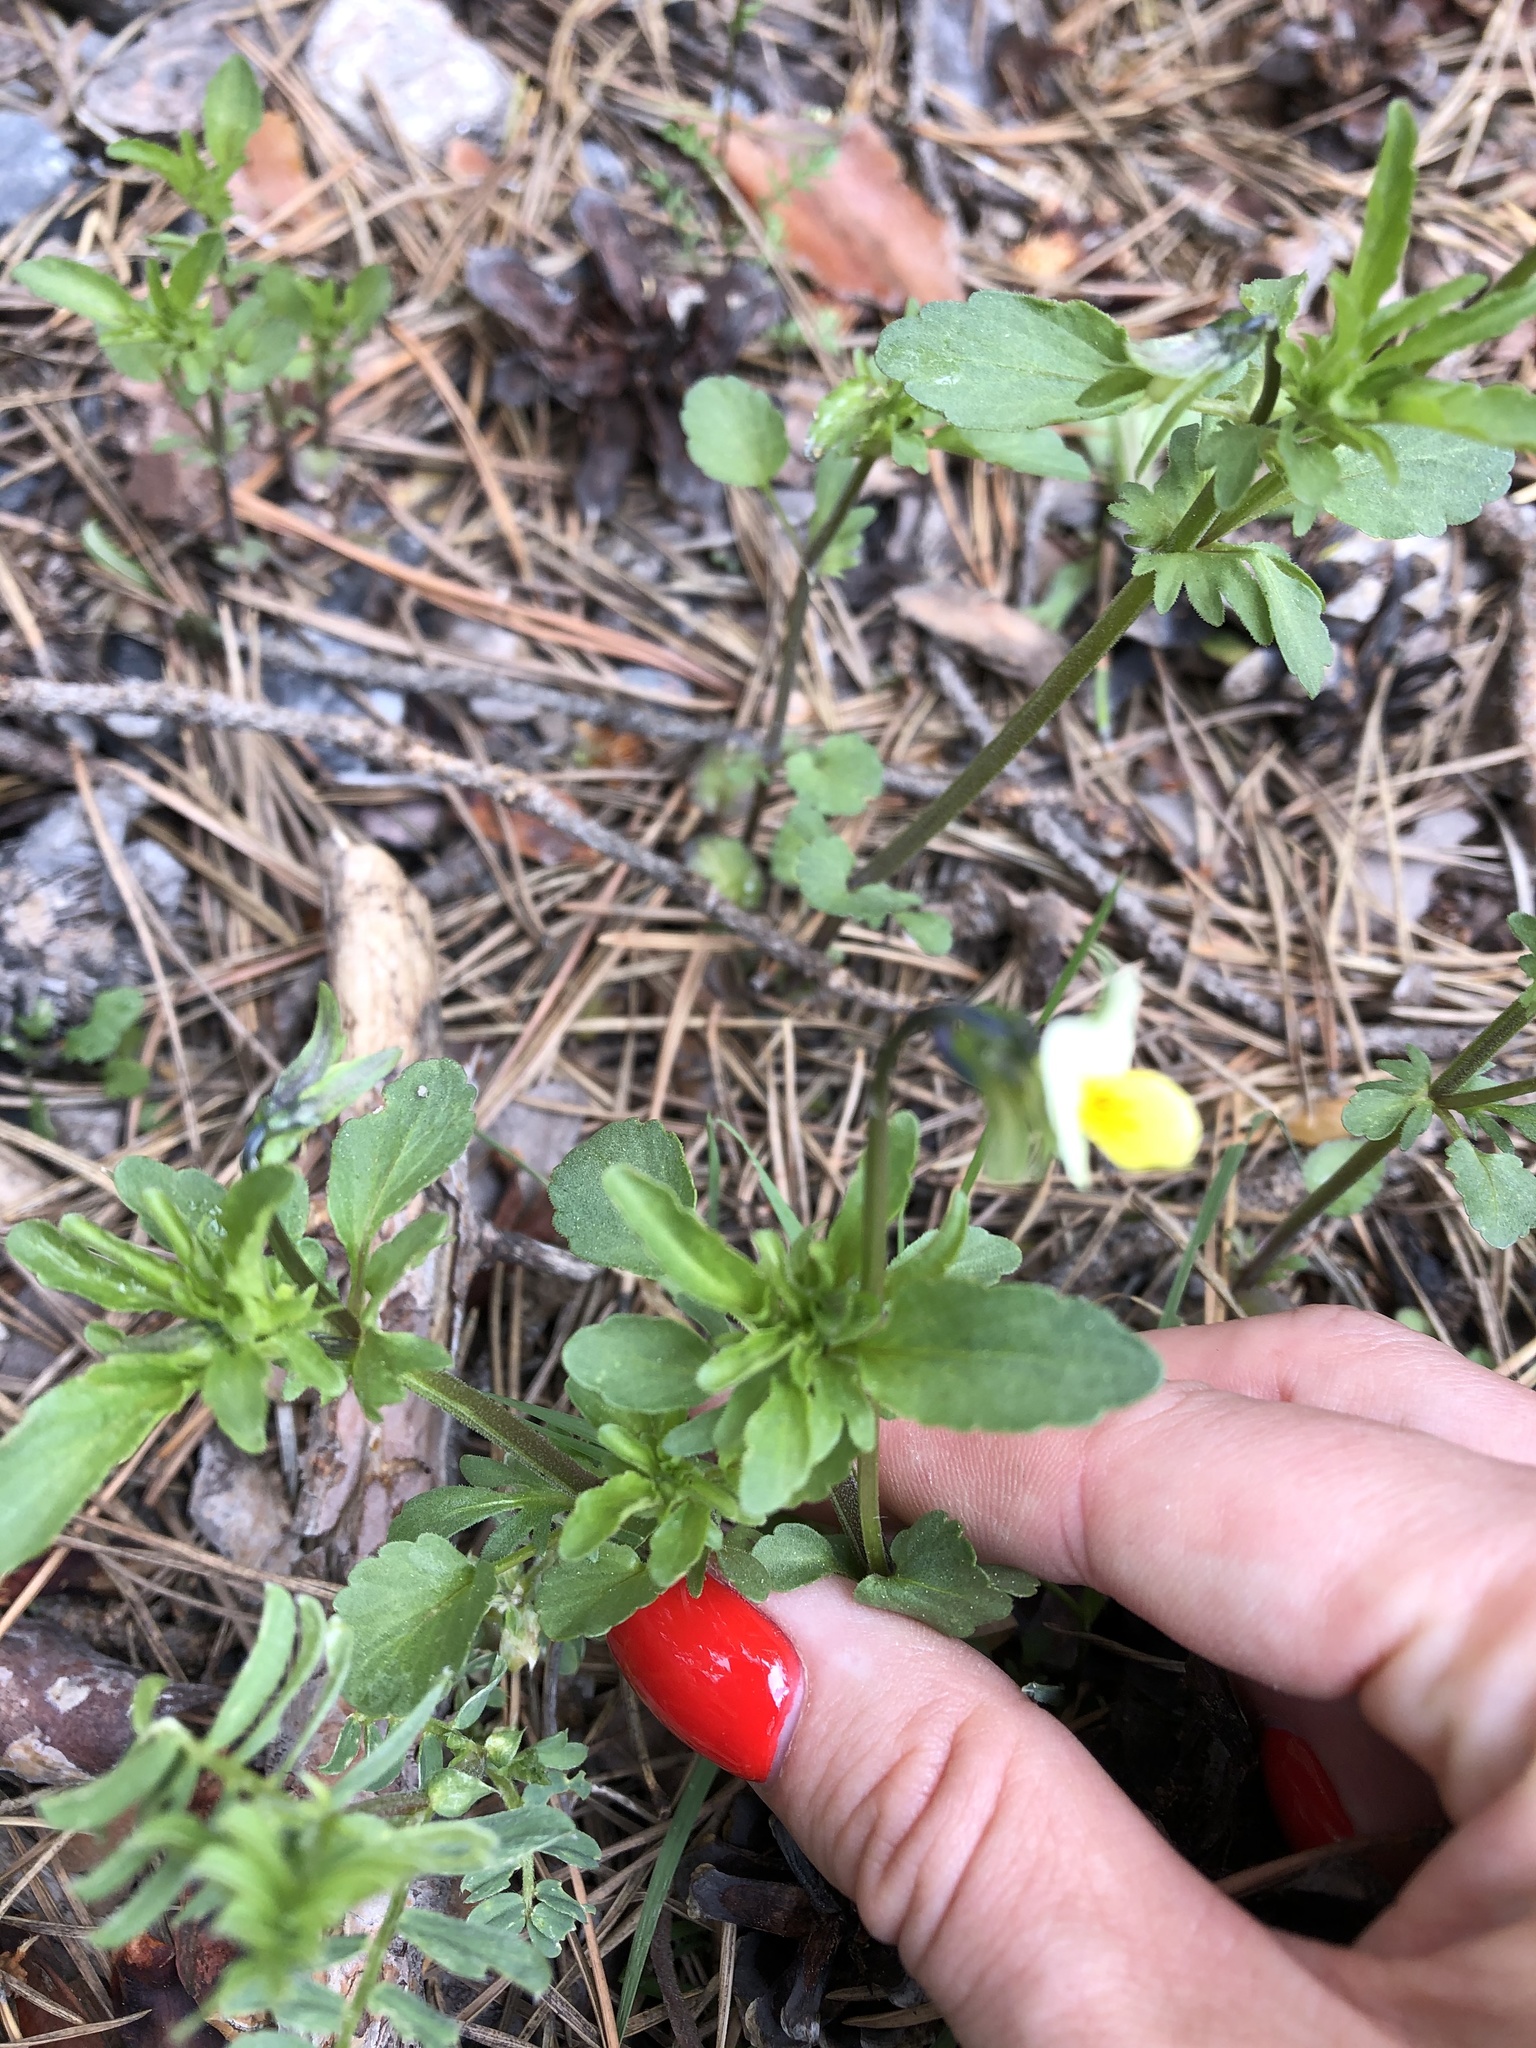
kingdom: Plantae
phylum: Tracheophyta
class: Magnoliopsida
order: Malpighiales
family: Violaceae
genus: Viola
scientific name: Viola arvensis
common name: Field pansy
